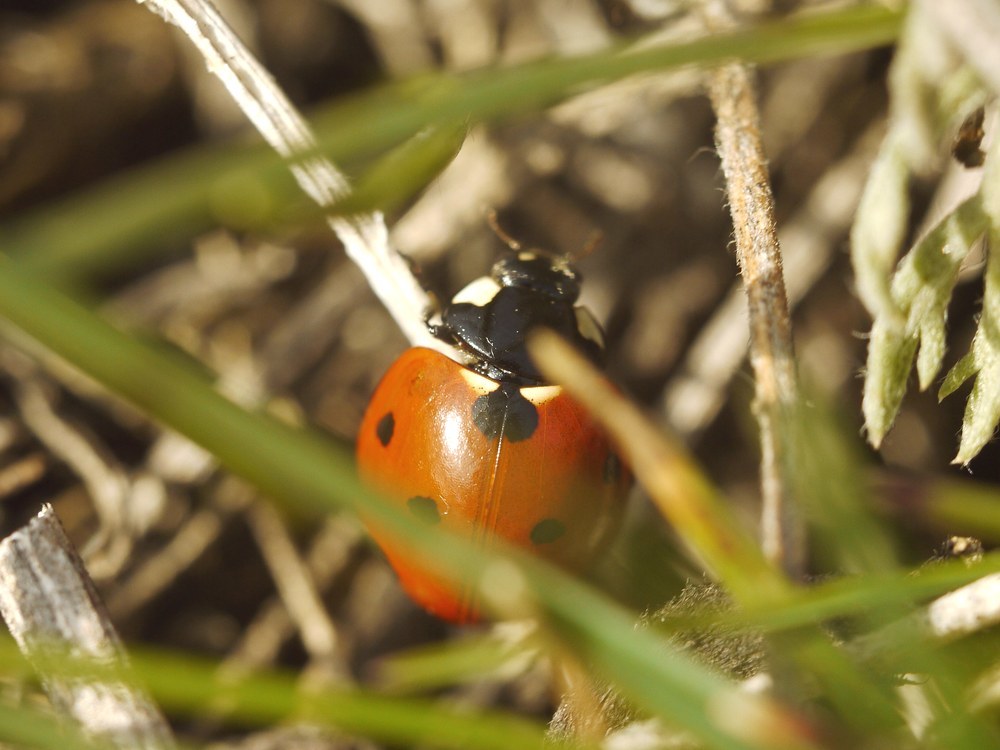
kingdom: Animalia
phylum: Arthropoda
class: Insecta
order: Coleoptera
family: Coccinellidae
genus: Coccinella
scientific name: Coccinella septempunctata
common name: Sevenspotted lady beetle
